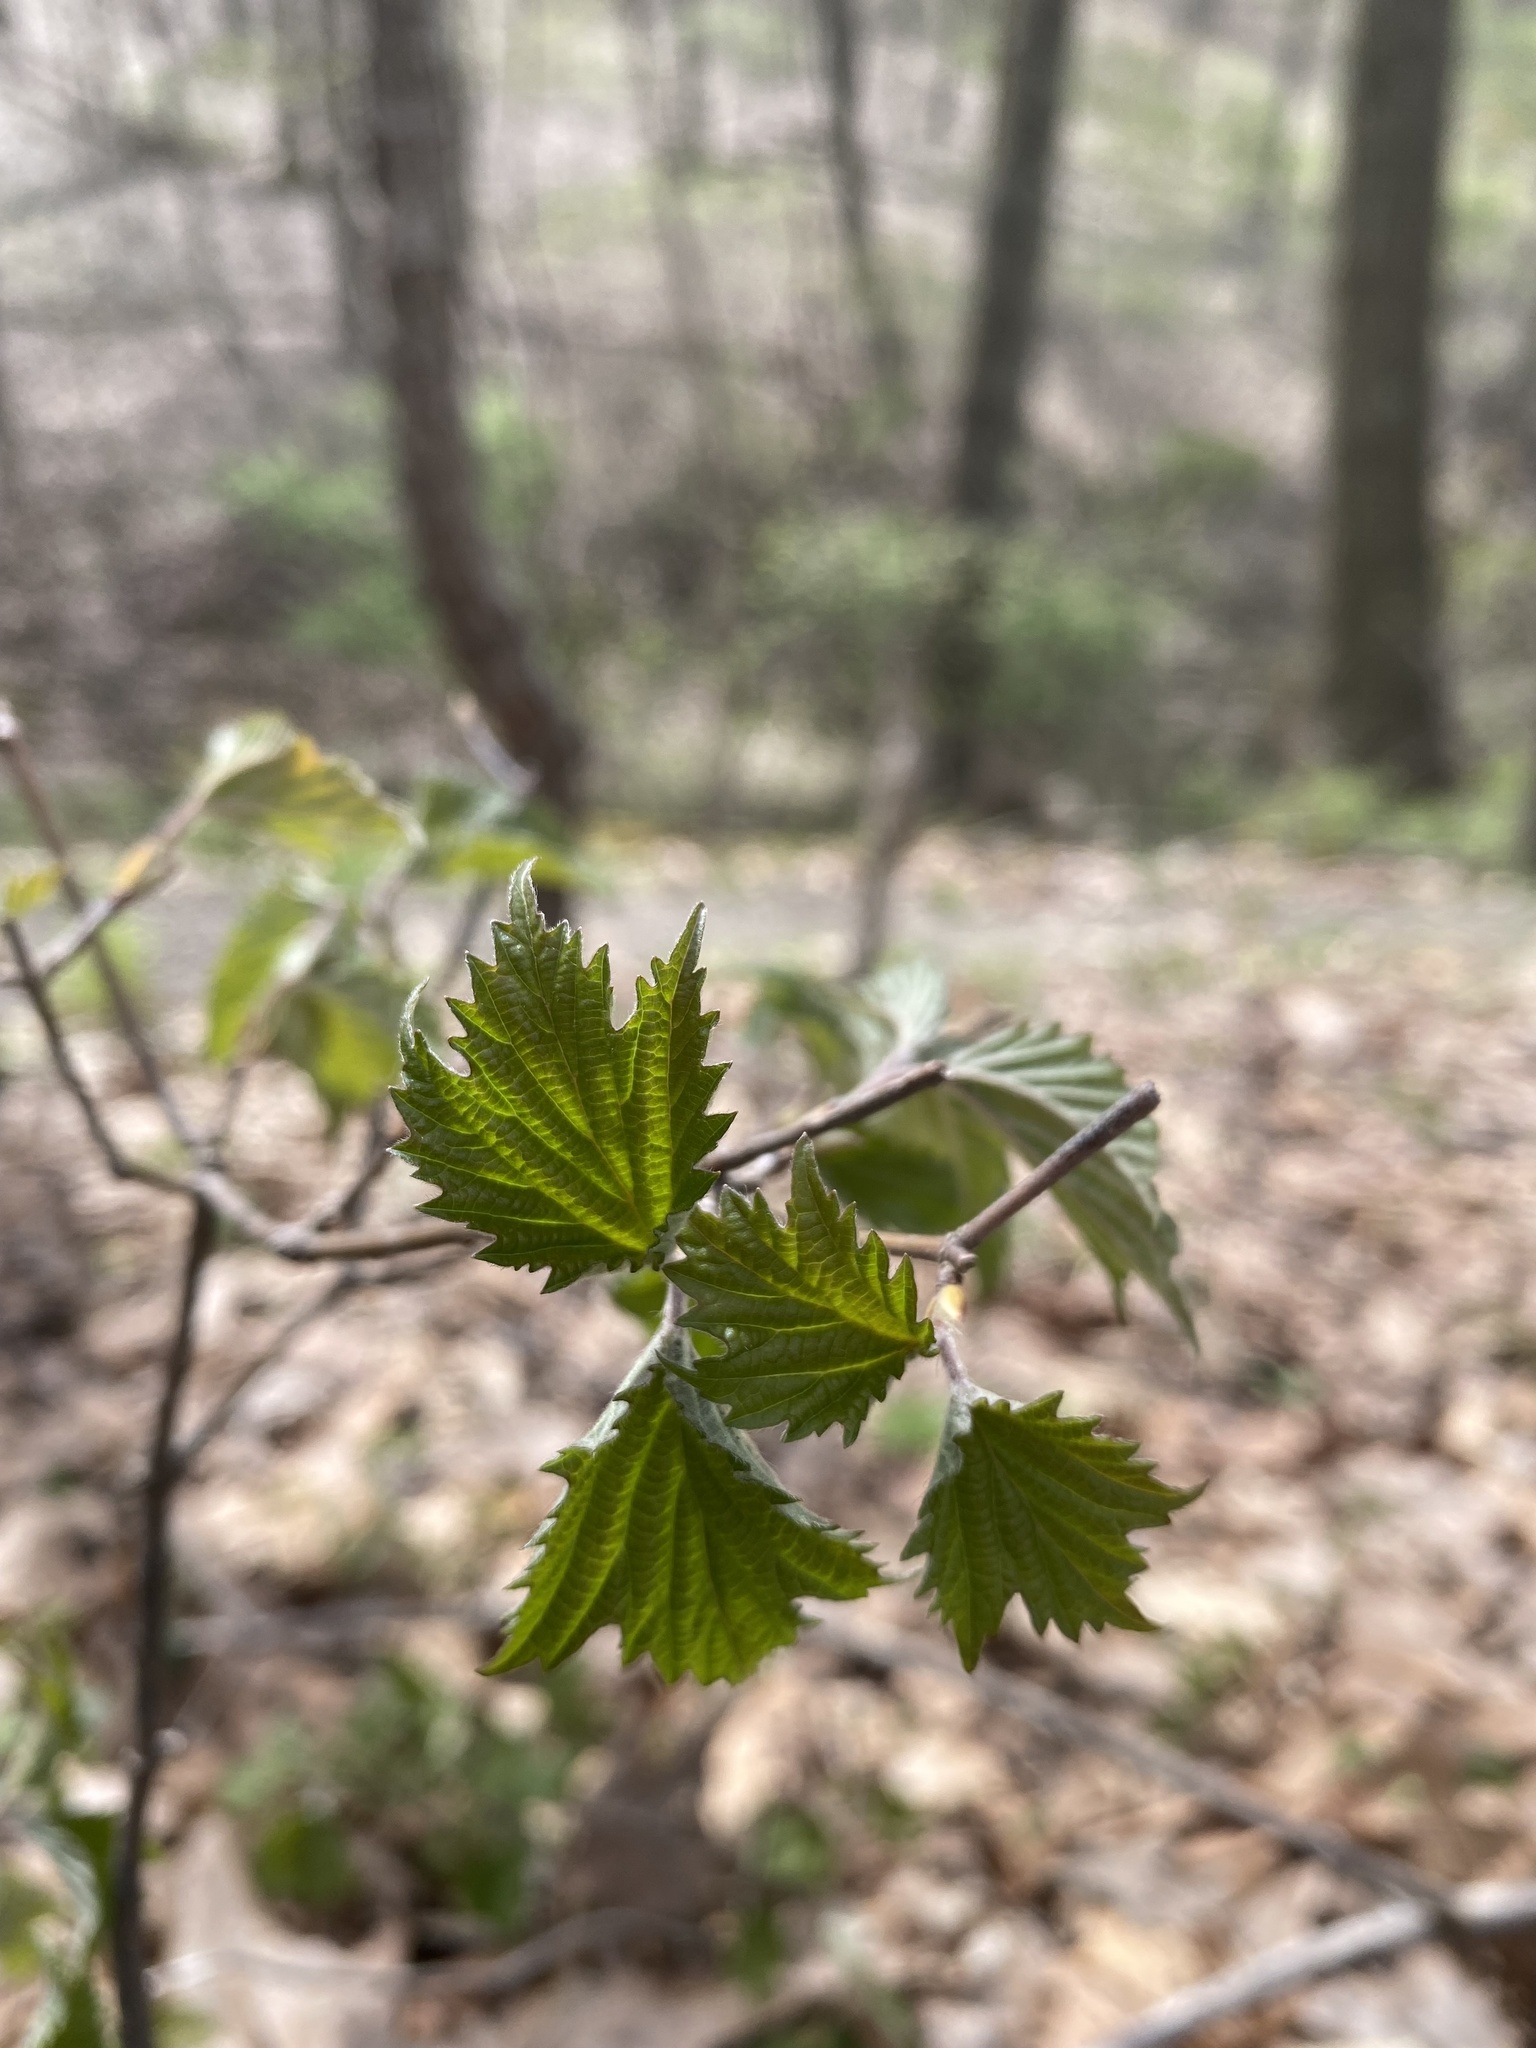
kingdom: Plantae
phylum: Tracheophyta
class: Magnoliopsida
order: Dipsacales
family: Viburnaceae
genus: Viburnum
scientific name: Viburnum acerifolium
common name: Dockmackie
